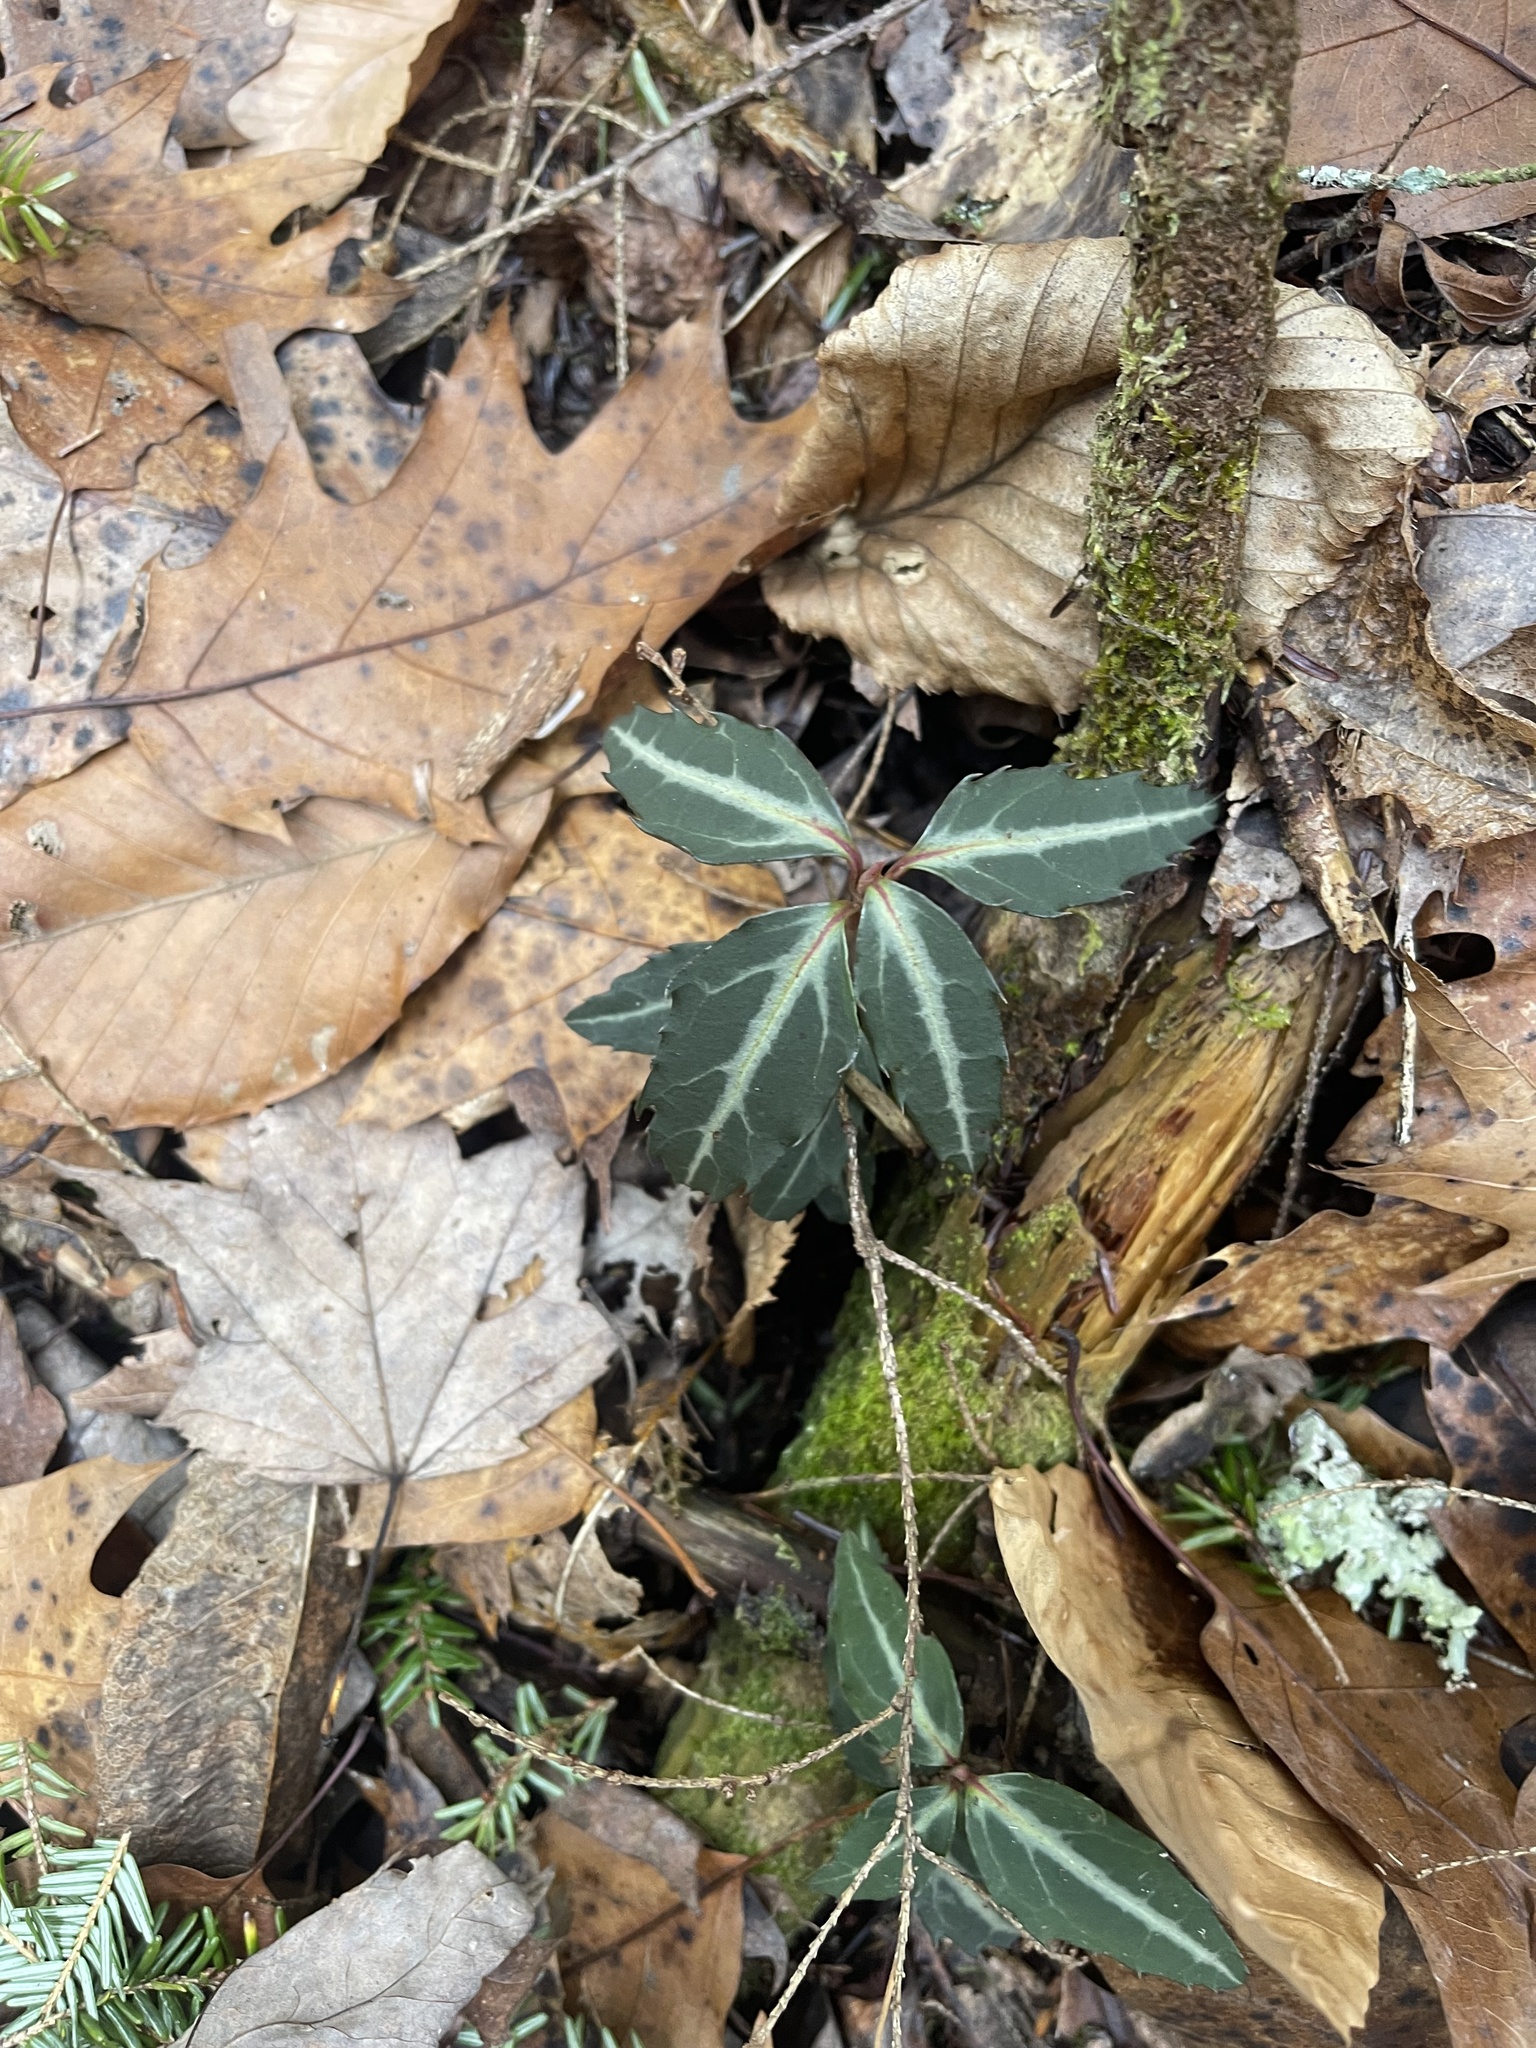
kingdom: Plantae
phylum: Tracheophyta
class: Magnoliopsida
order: Ericales
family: Ericaceae
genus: Chimaphila
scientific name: Chimaphila maculata
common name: Spotted pipsissewa
